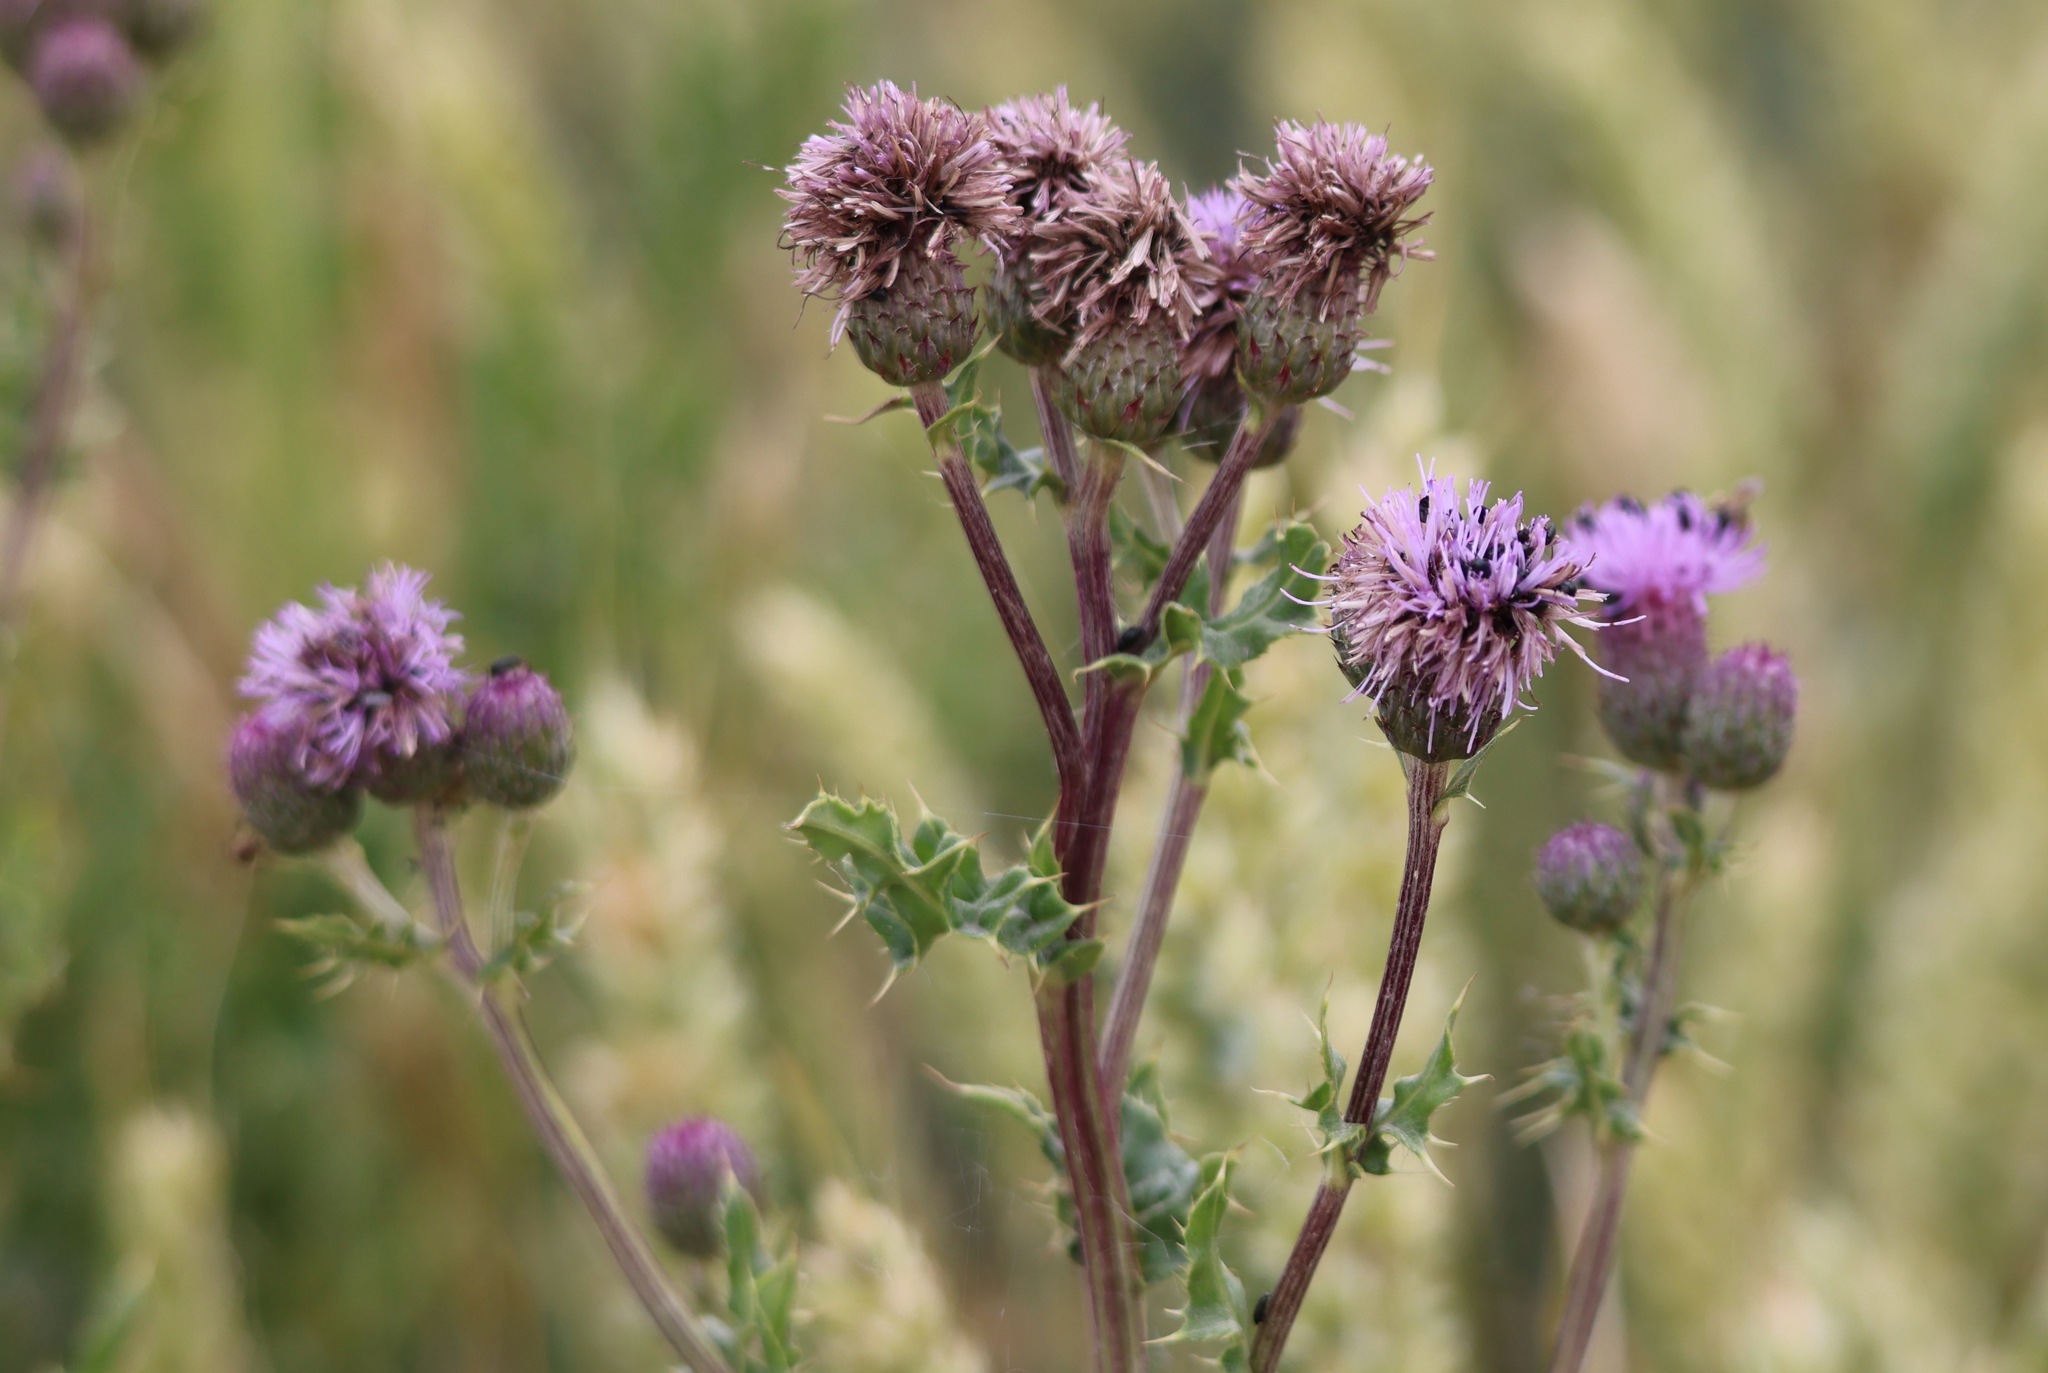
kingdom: Plantae
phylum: Tracheophyta
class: Magnoliopsida
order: Asterales
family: Asteraceae
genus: Cirsium
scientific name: Cirsium arvense
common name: Creeping thistle
